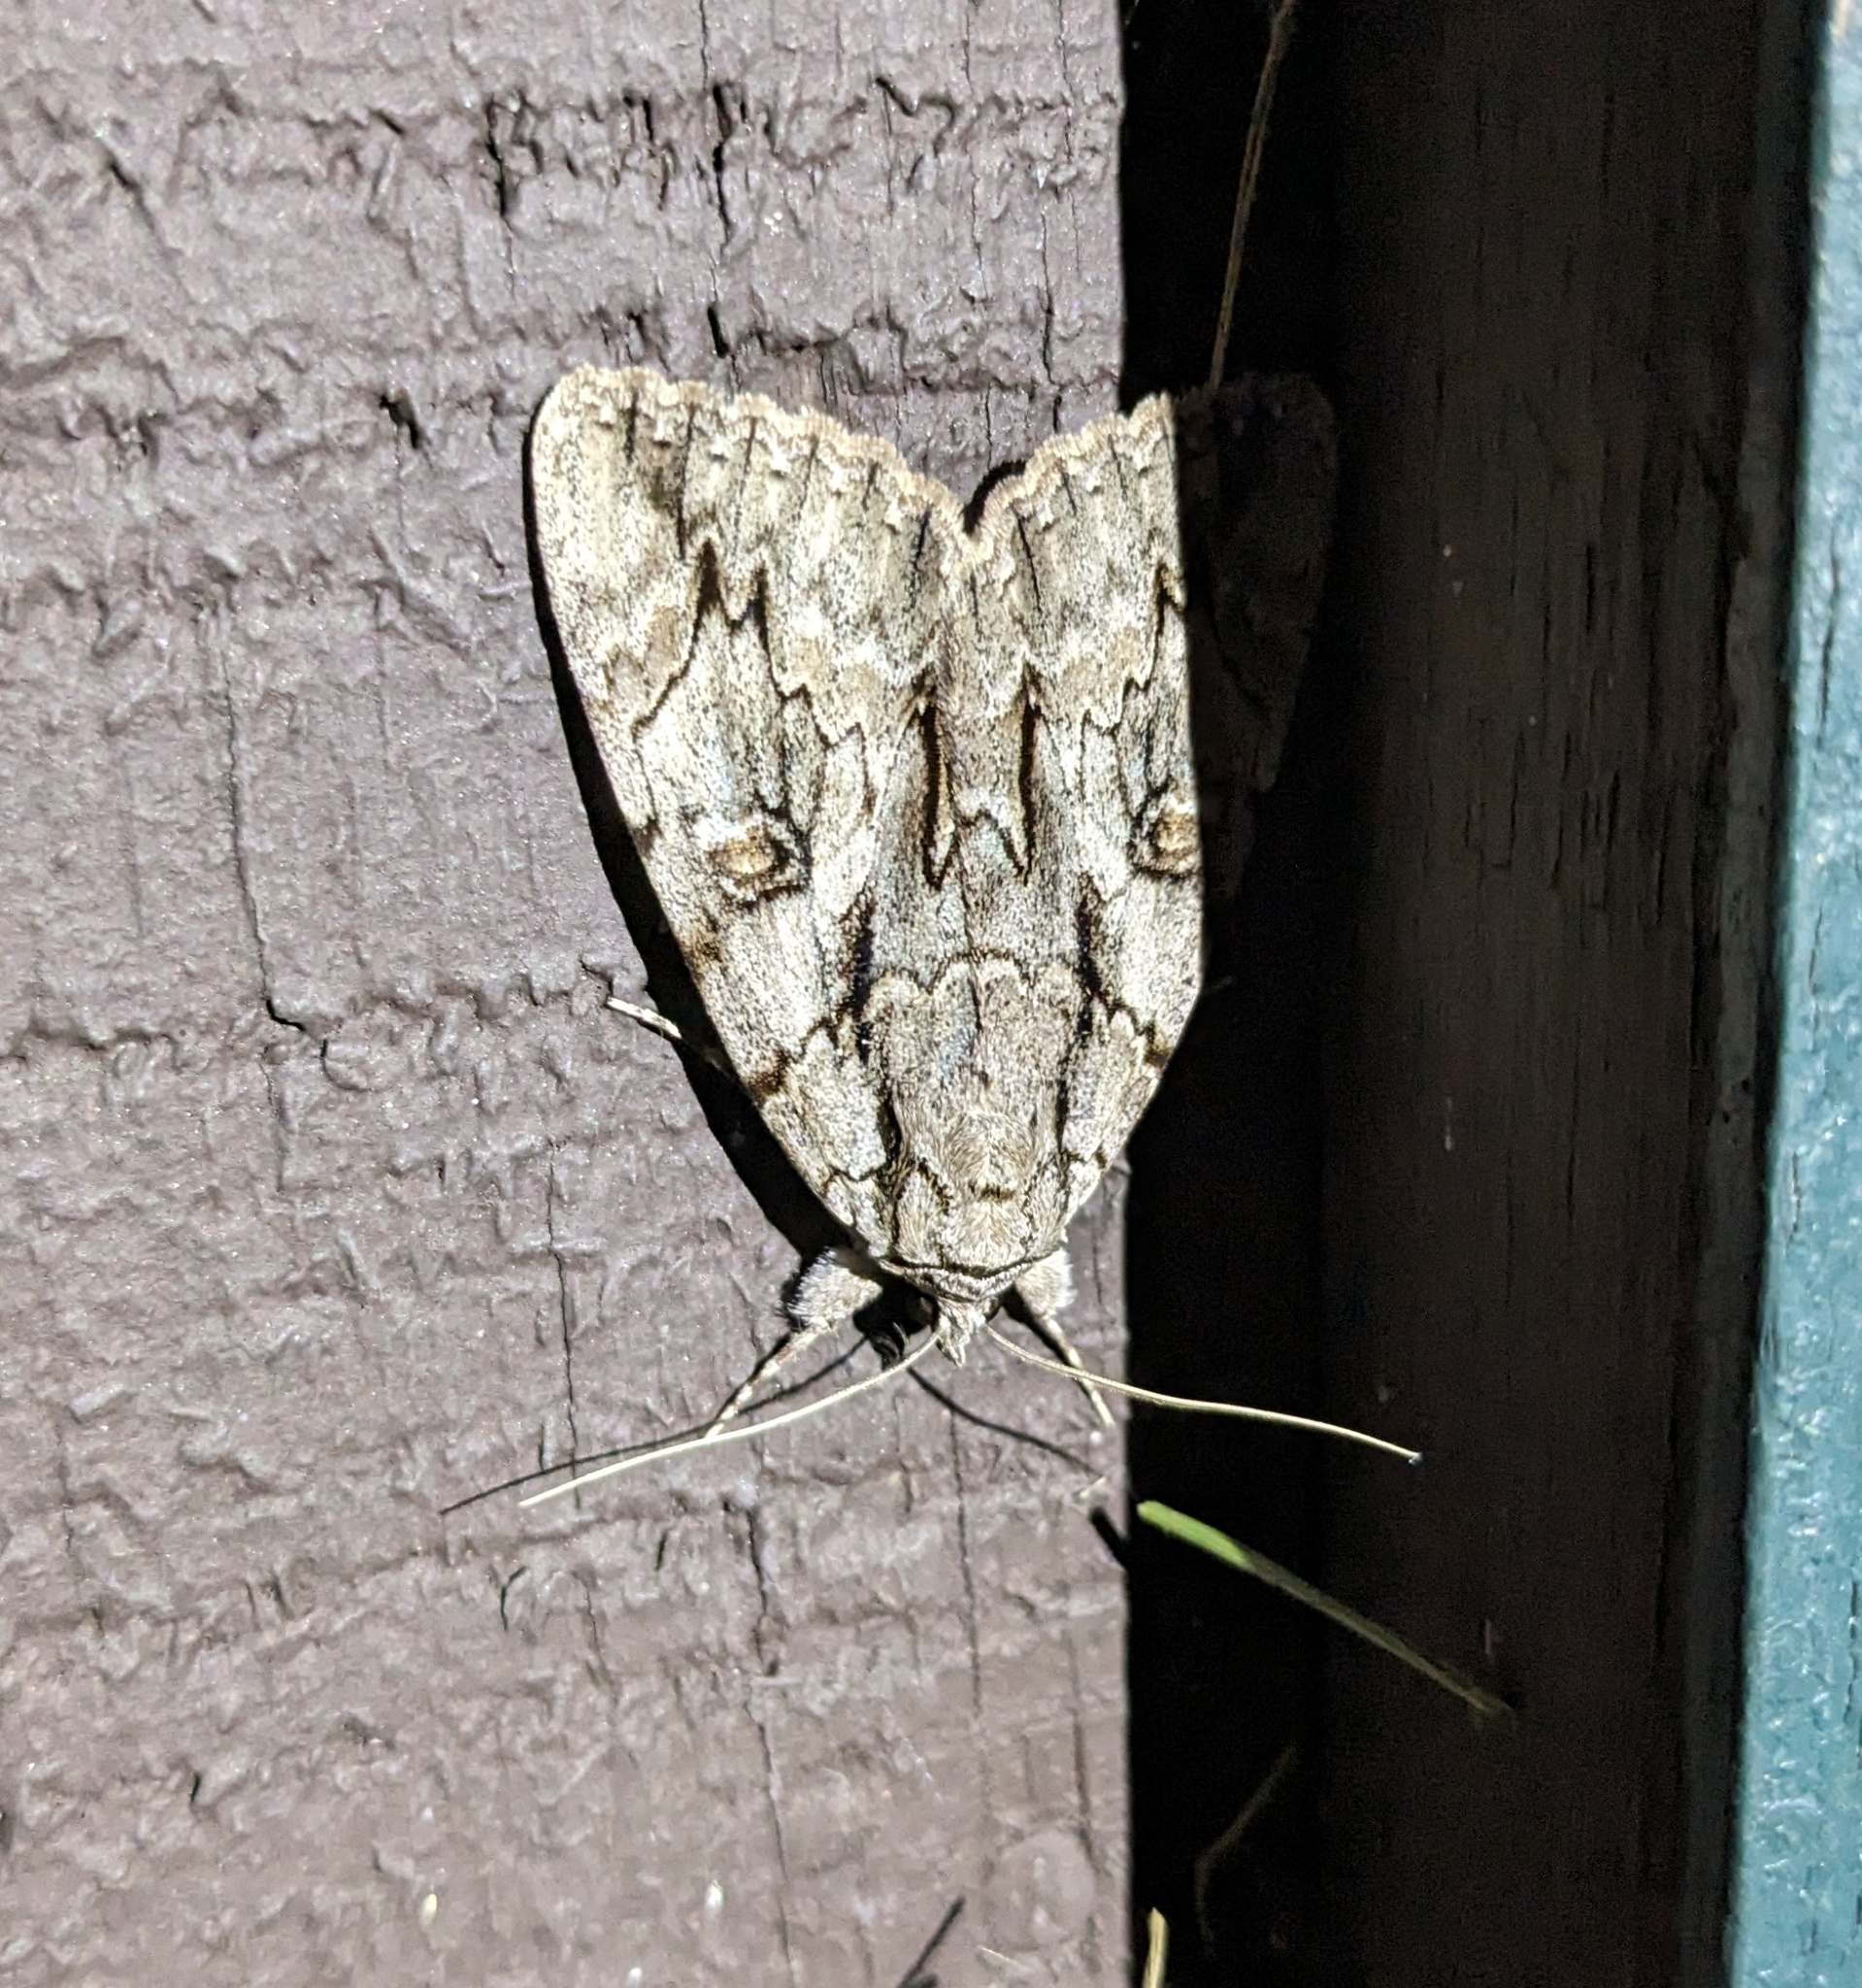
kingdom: Animalia
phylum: Arthropoda
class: Insecta
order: Lepidoptera
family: Erebidae
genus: Catocala
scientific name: Catocala retecta
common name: Yellow-gray underwing
